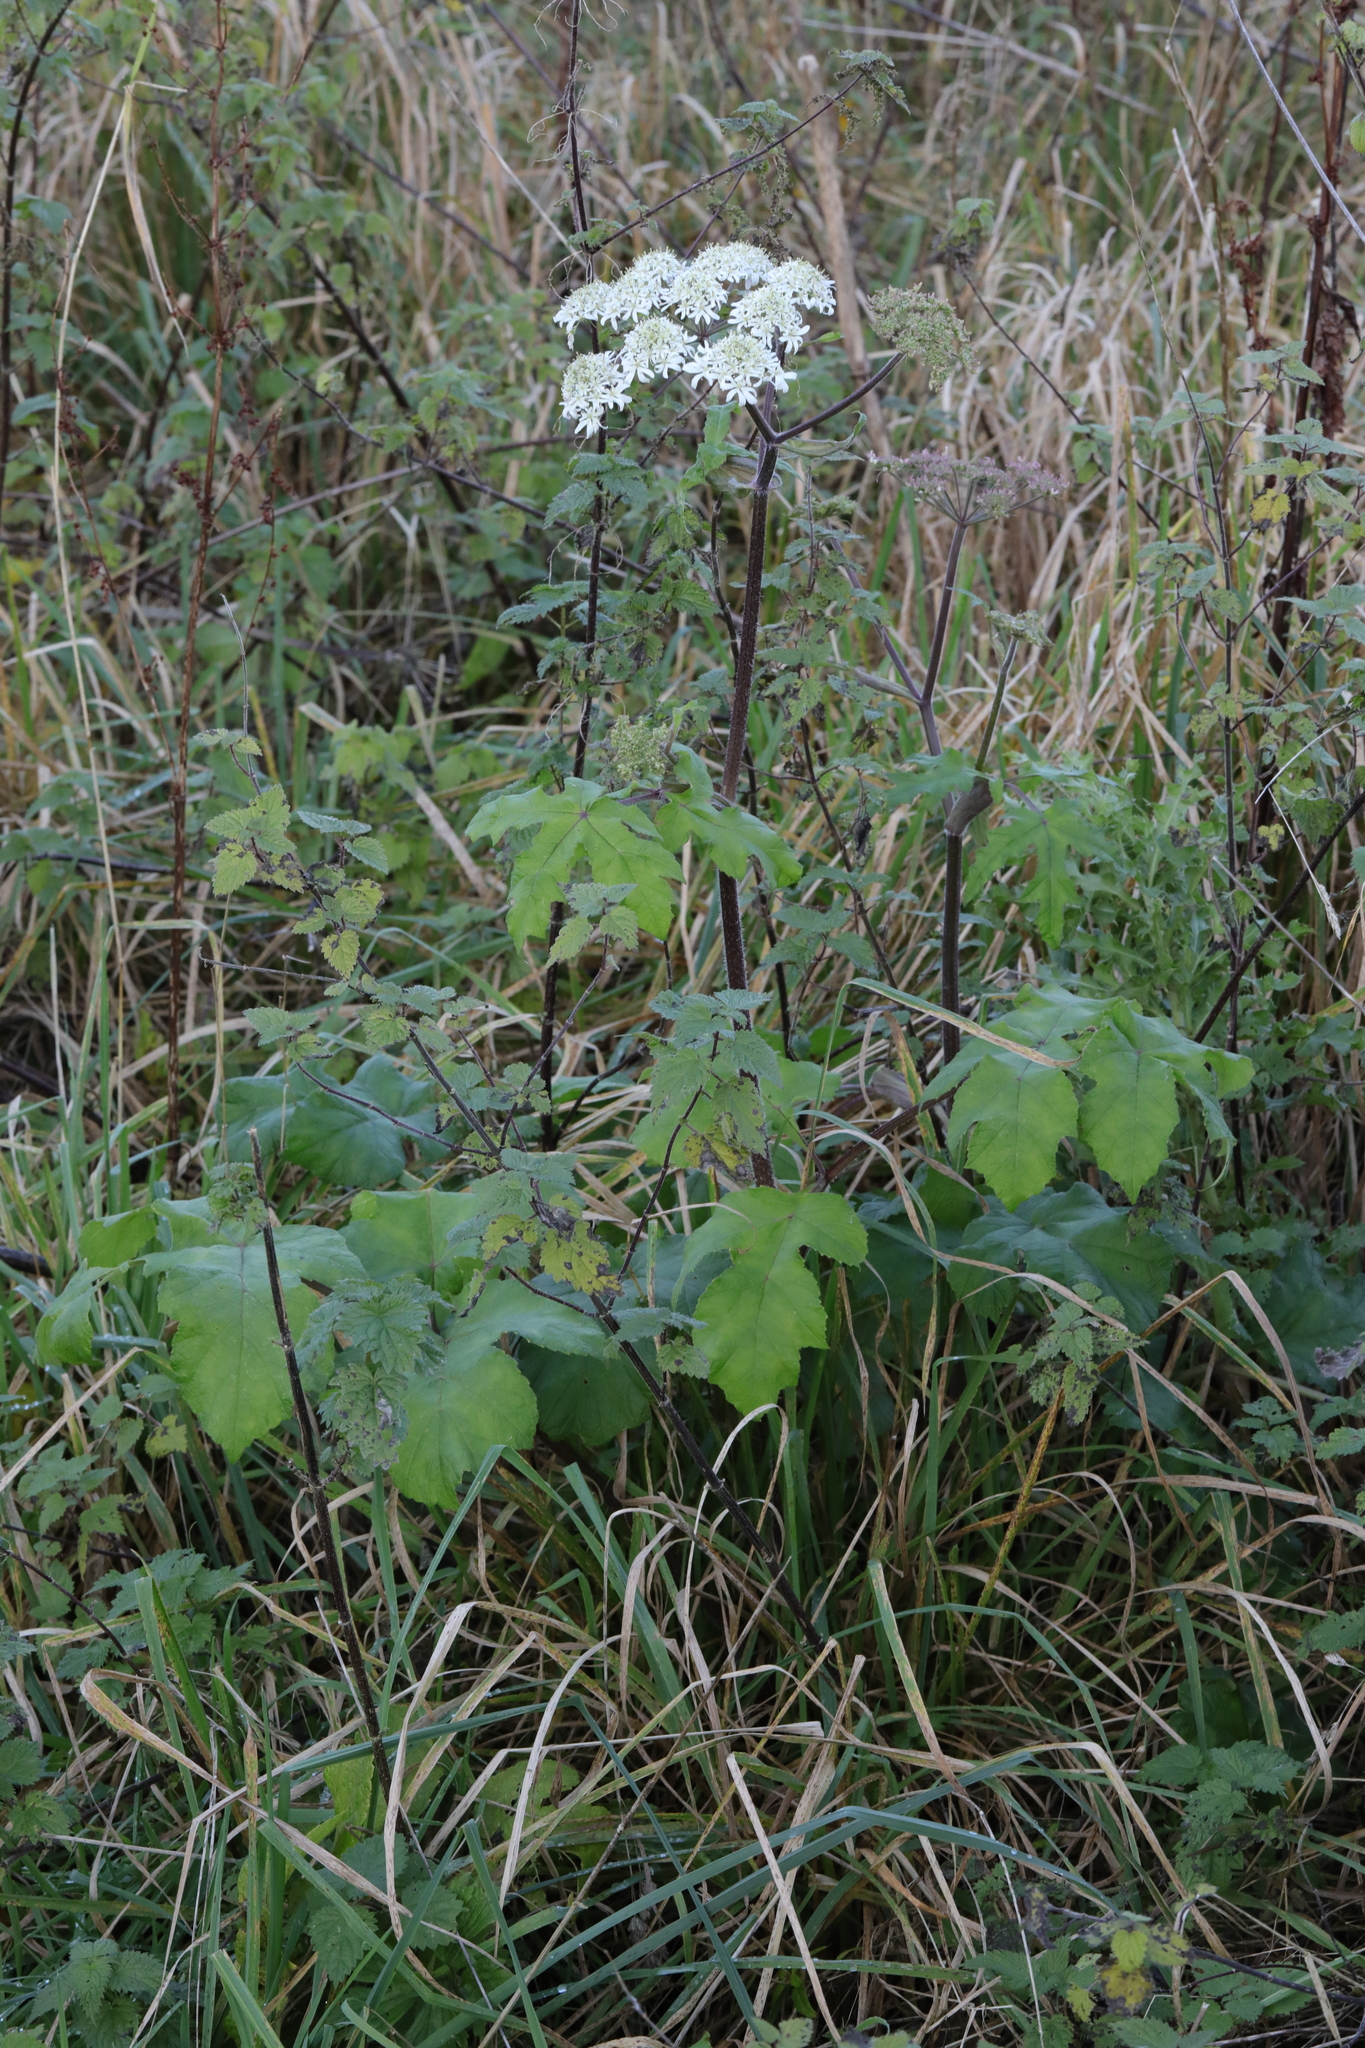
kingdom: Plantae
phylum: Tracheophyta
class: Magnoliopsida
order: Apiales
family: Apiaceae
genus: Heracleum
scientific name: Heracleum sphondylium
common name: Hogweed
